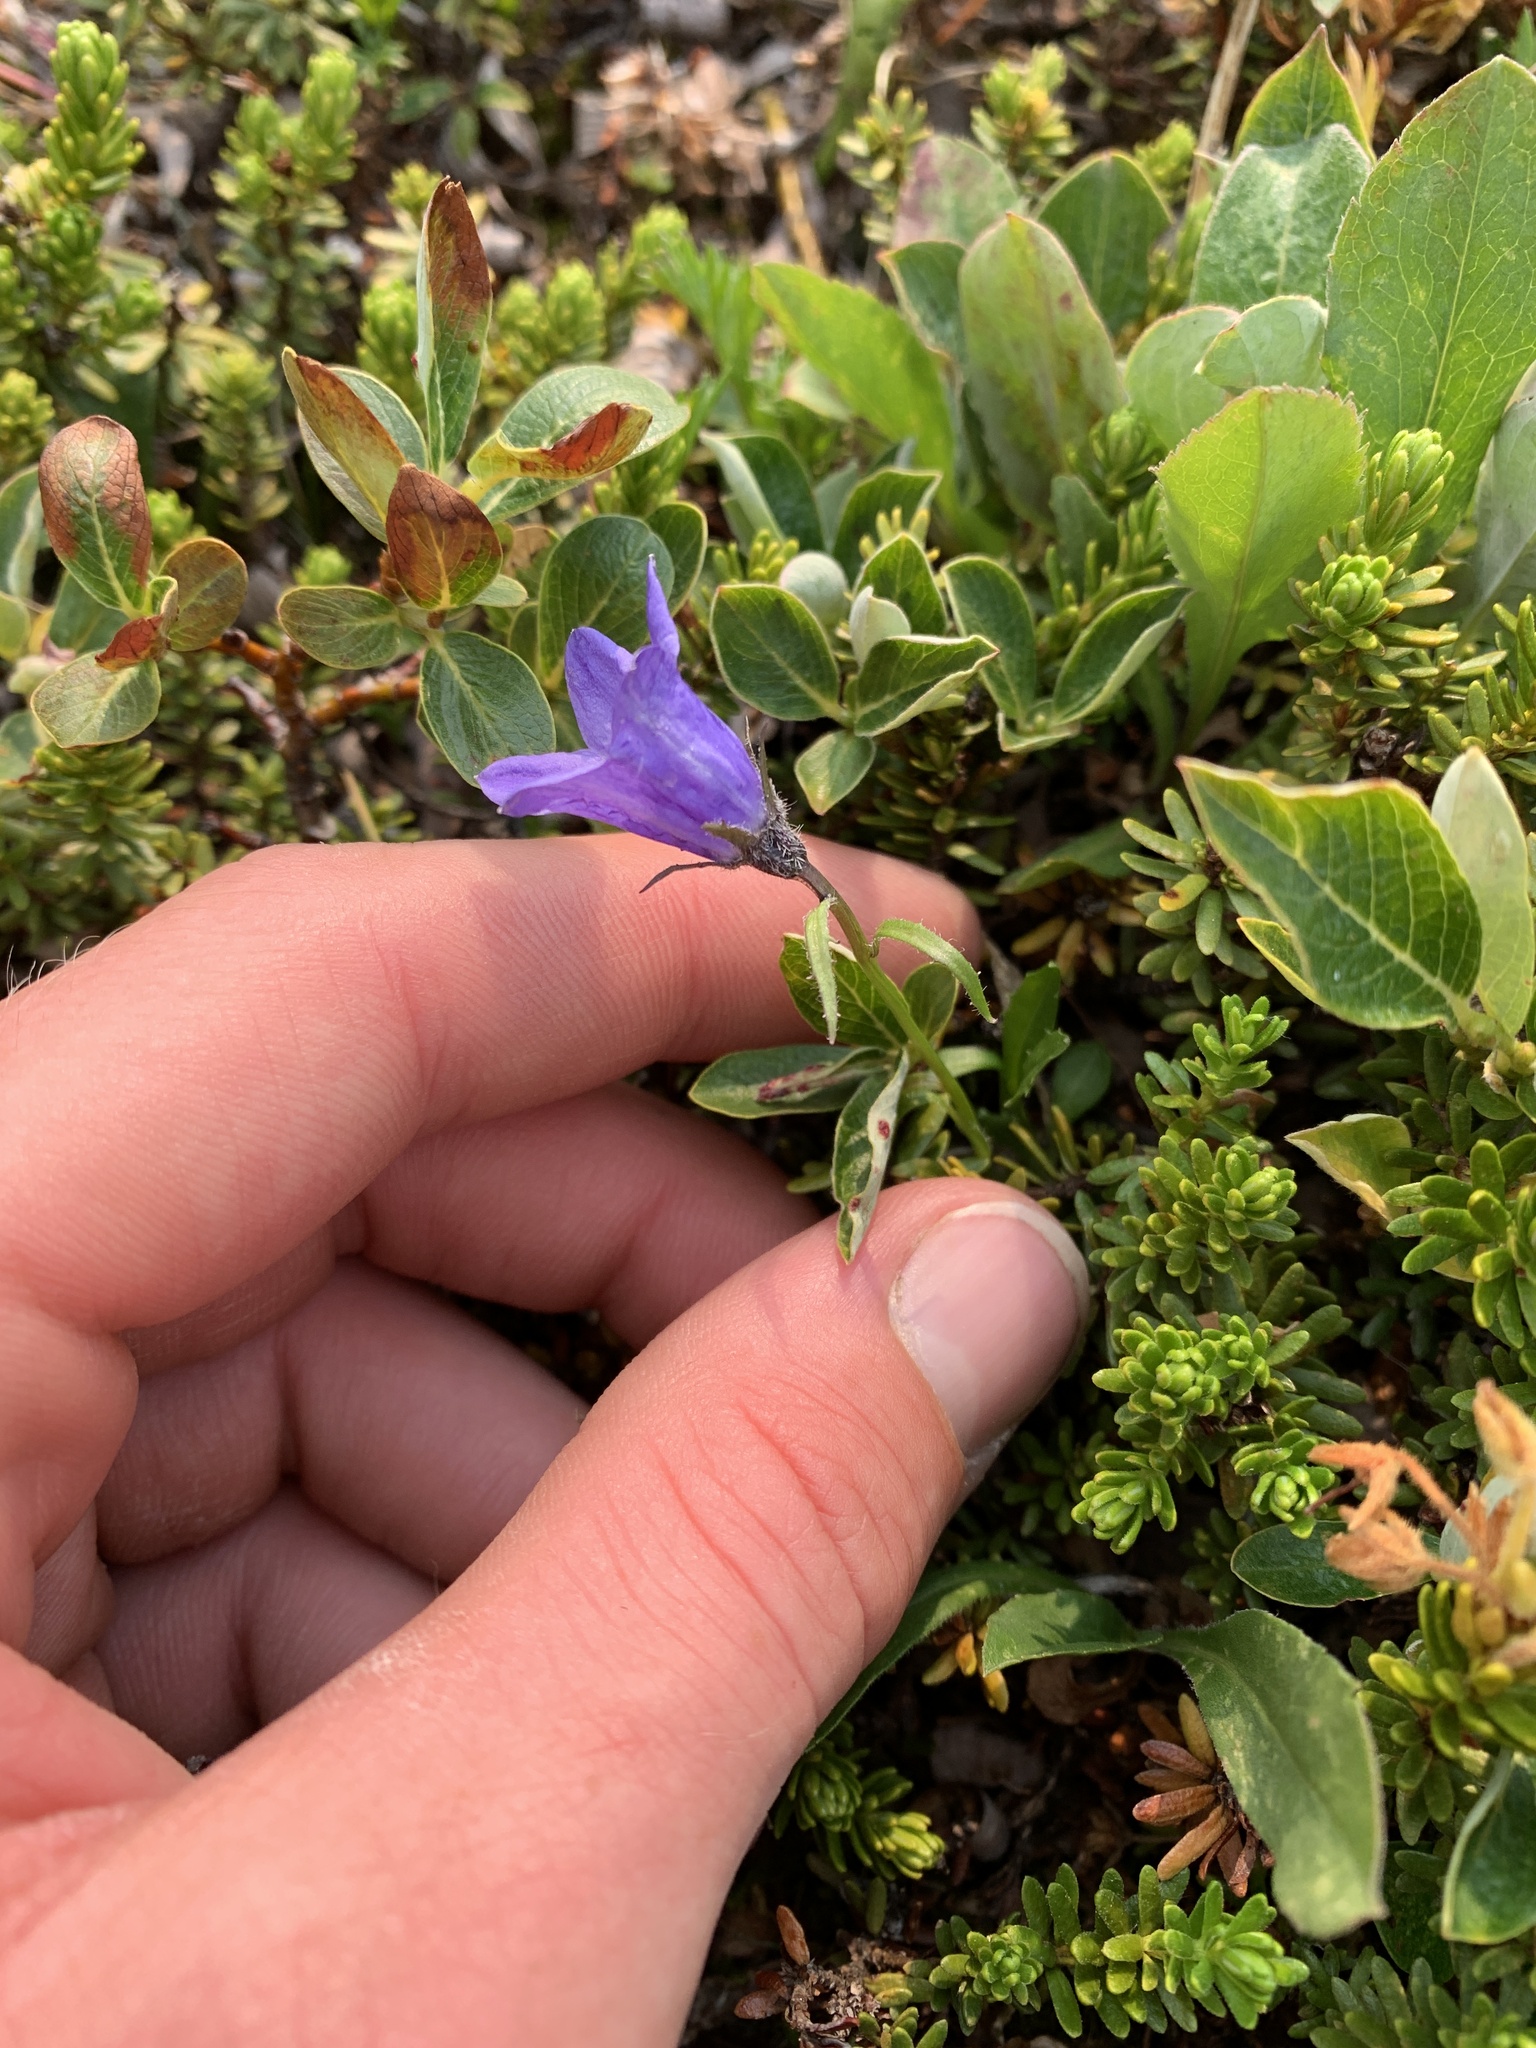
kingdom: Plantae
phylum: Tracheophyta
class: Magnoliopsida
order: Asterales
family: Campanulaceae
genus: Campanula
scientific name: Campanula lasiocarpa
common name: Mountain harebell
